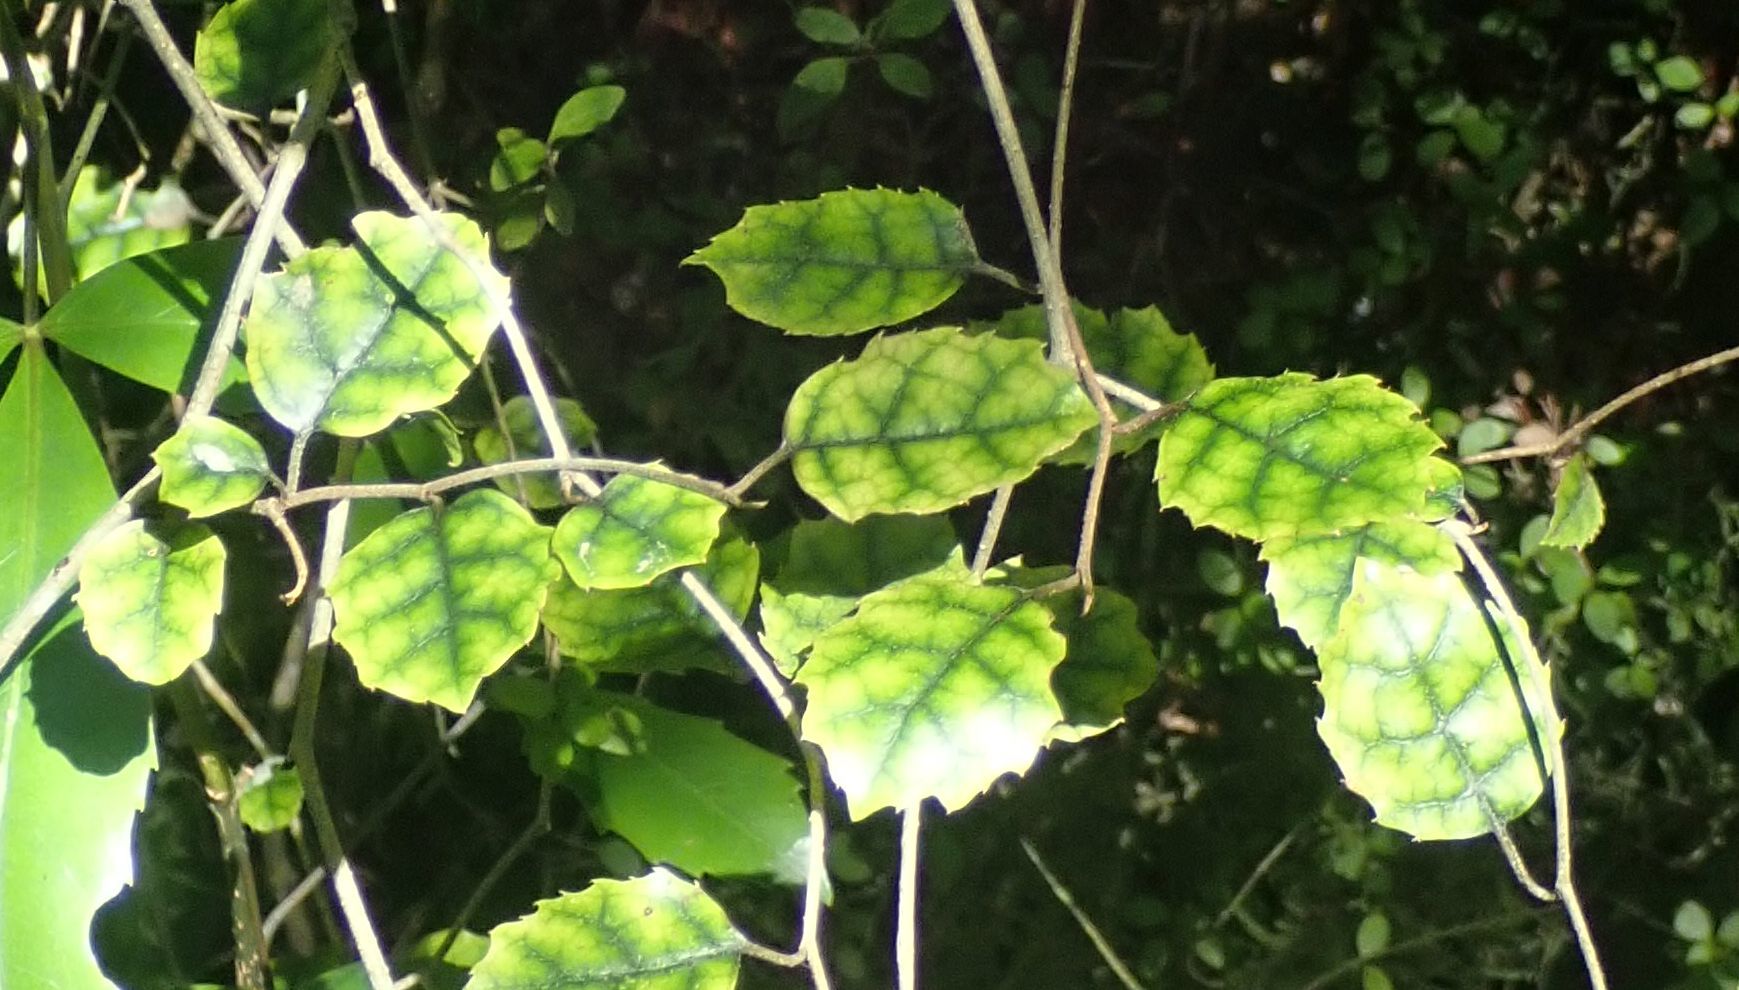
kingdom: Plantae
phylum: Tracheophyta
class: Magnoliopsida
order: Asterales
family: Rousseaceae
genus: Carpodetus
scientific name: Carpodetus serratus
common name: White mapau
